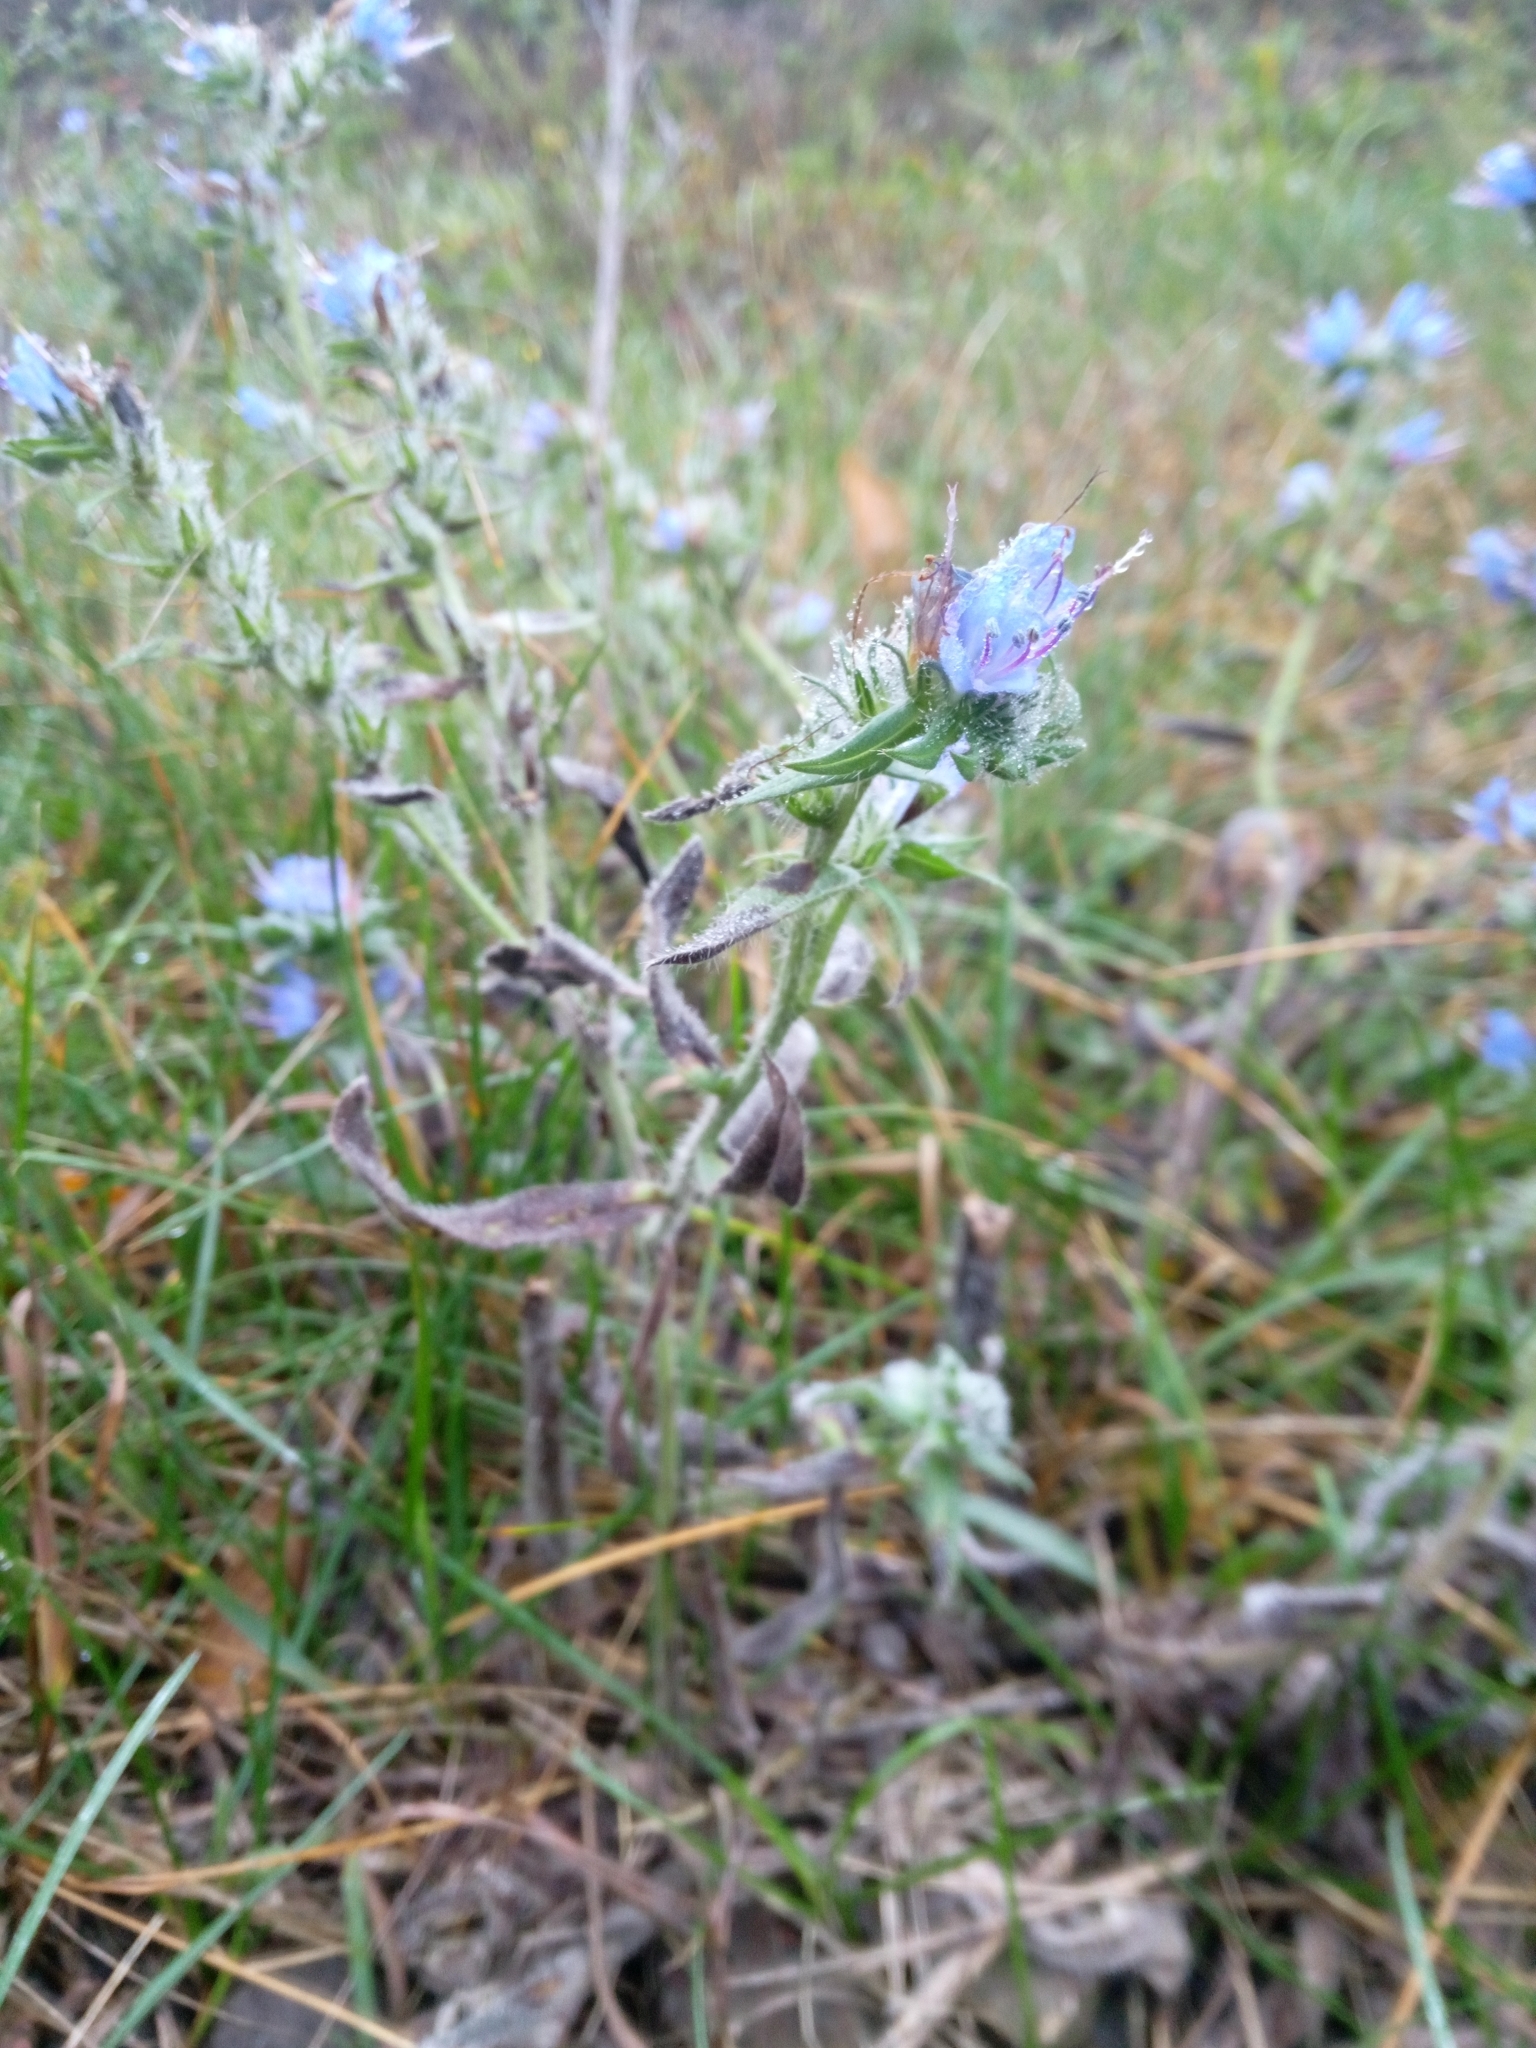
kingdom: Plantae
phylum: Tracheophyta
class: Magnoliopsida
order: Boraginales
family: Boraginaceae
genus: Echium
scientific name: Echium vulgare
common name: Common viper's bugloss
